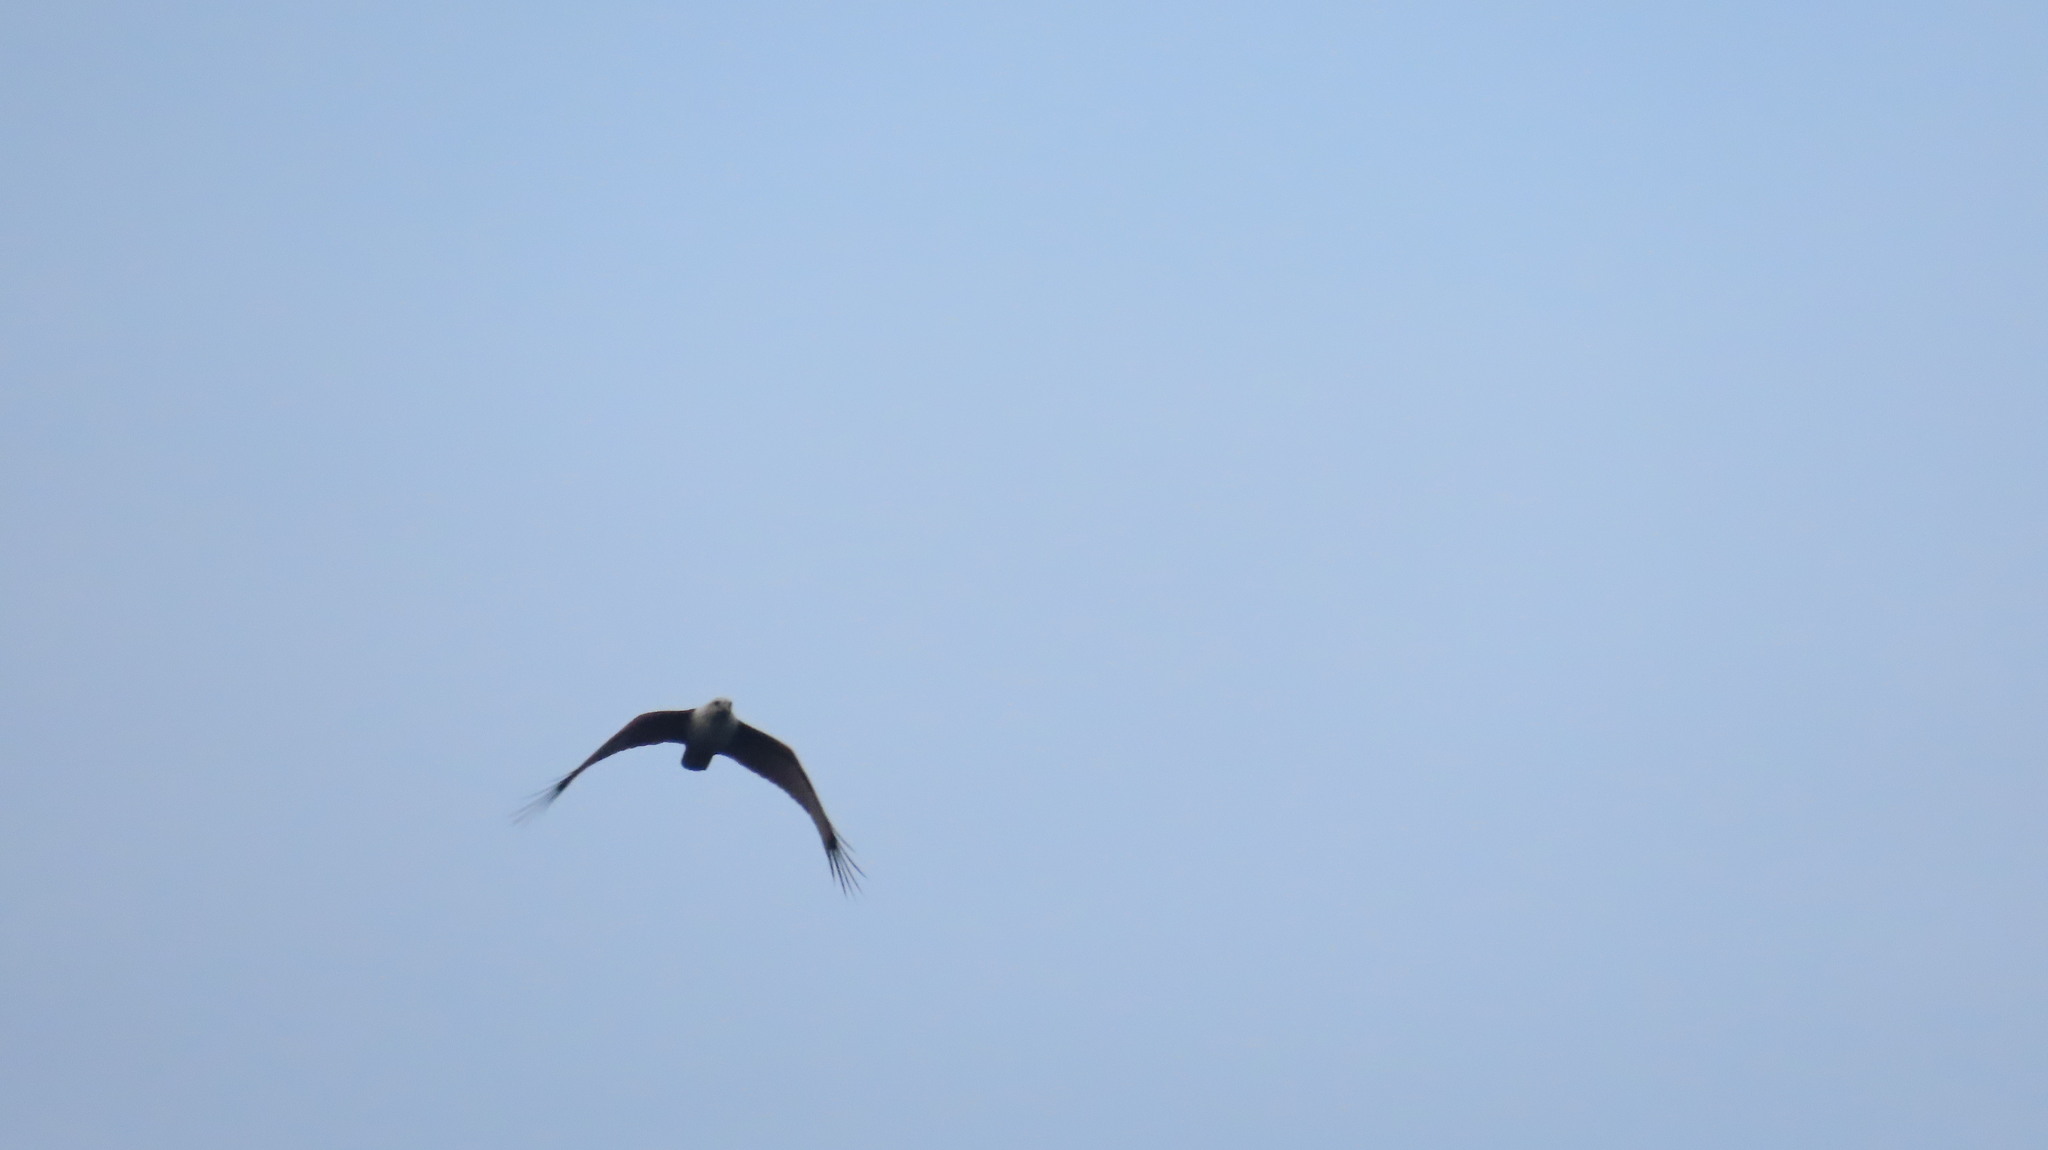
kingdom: Animalia
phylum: Chordata
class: Aves
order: Accipitriformes
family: Accipitridae
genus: Haliastur
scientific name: Haliastur indus
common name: Brahminy kite
